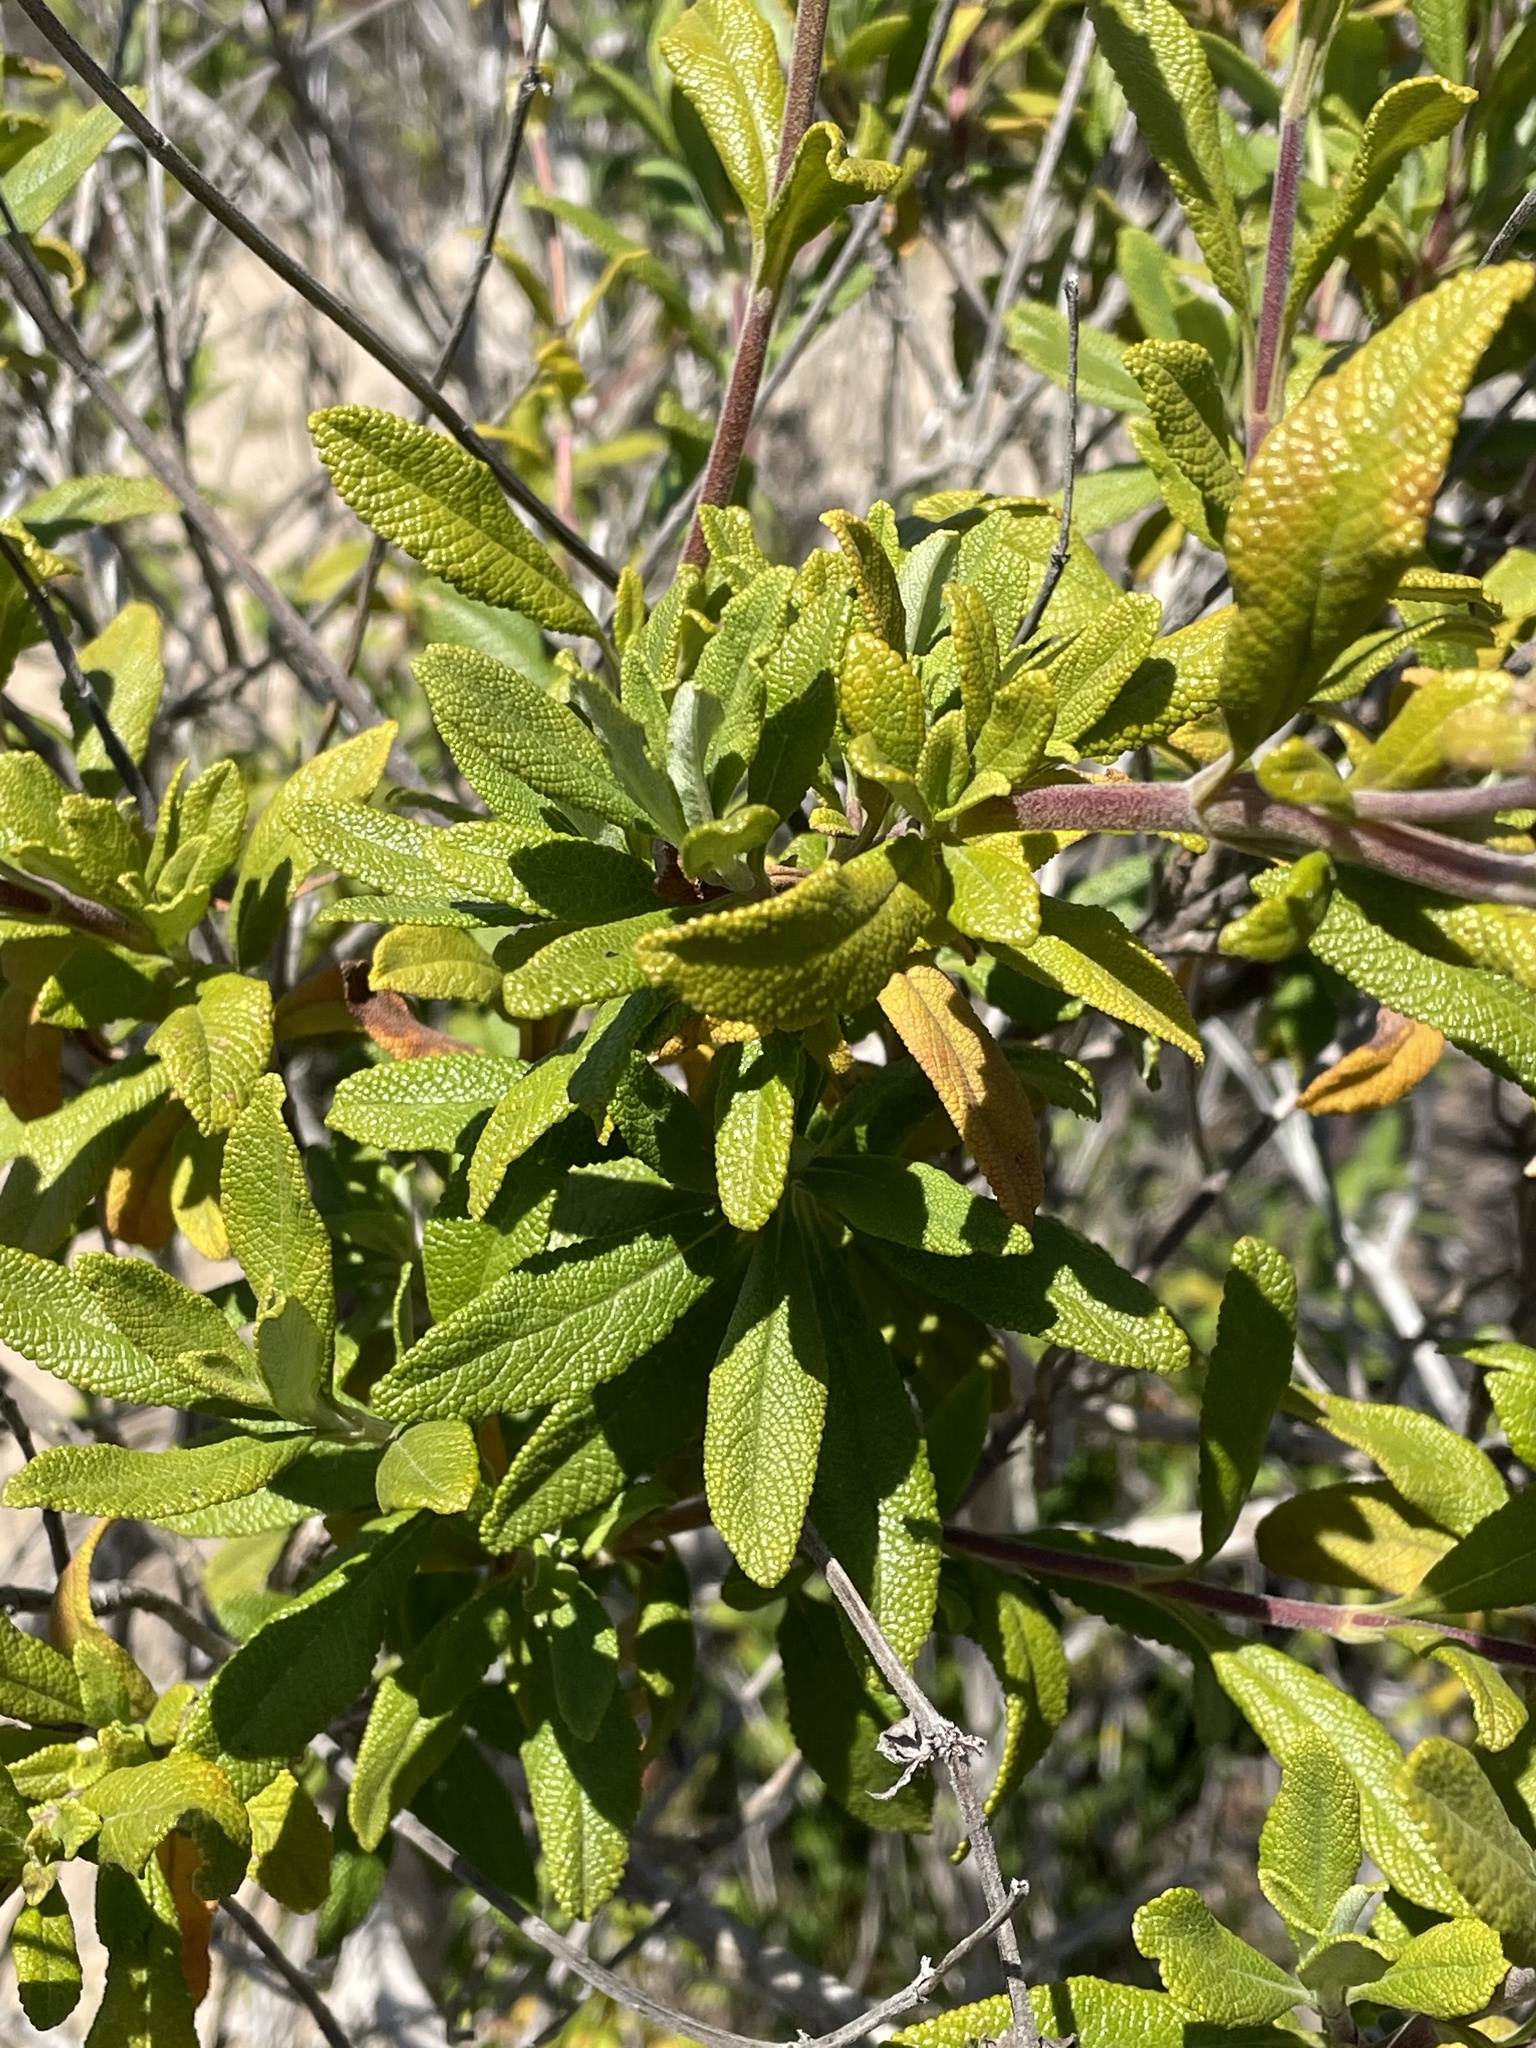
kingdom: Plantae
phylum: Tracheophyta
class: Magnoliopsida
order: Lamiales
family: Lamiaceae
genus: Salvia
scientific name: Salvia mellifera
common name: Black sage
